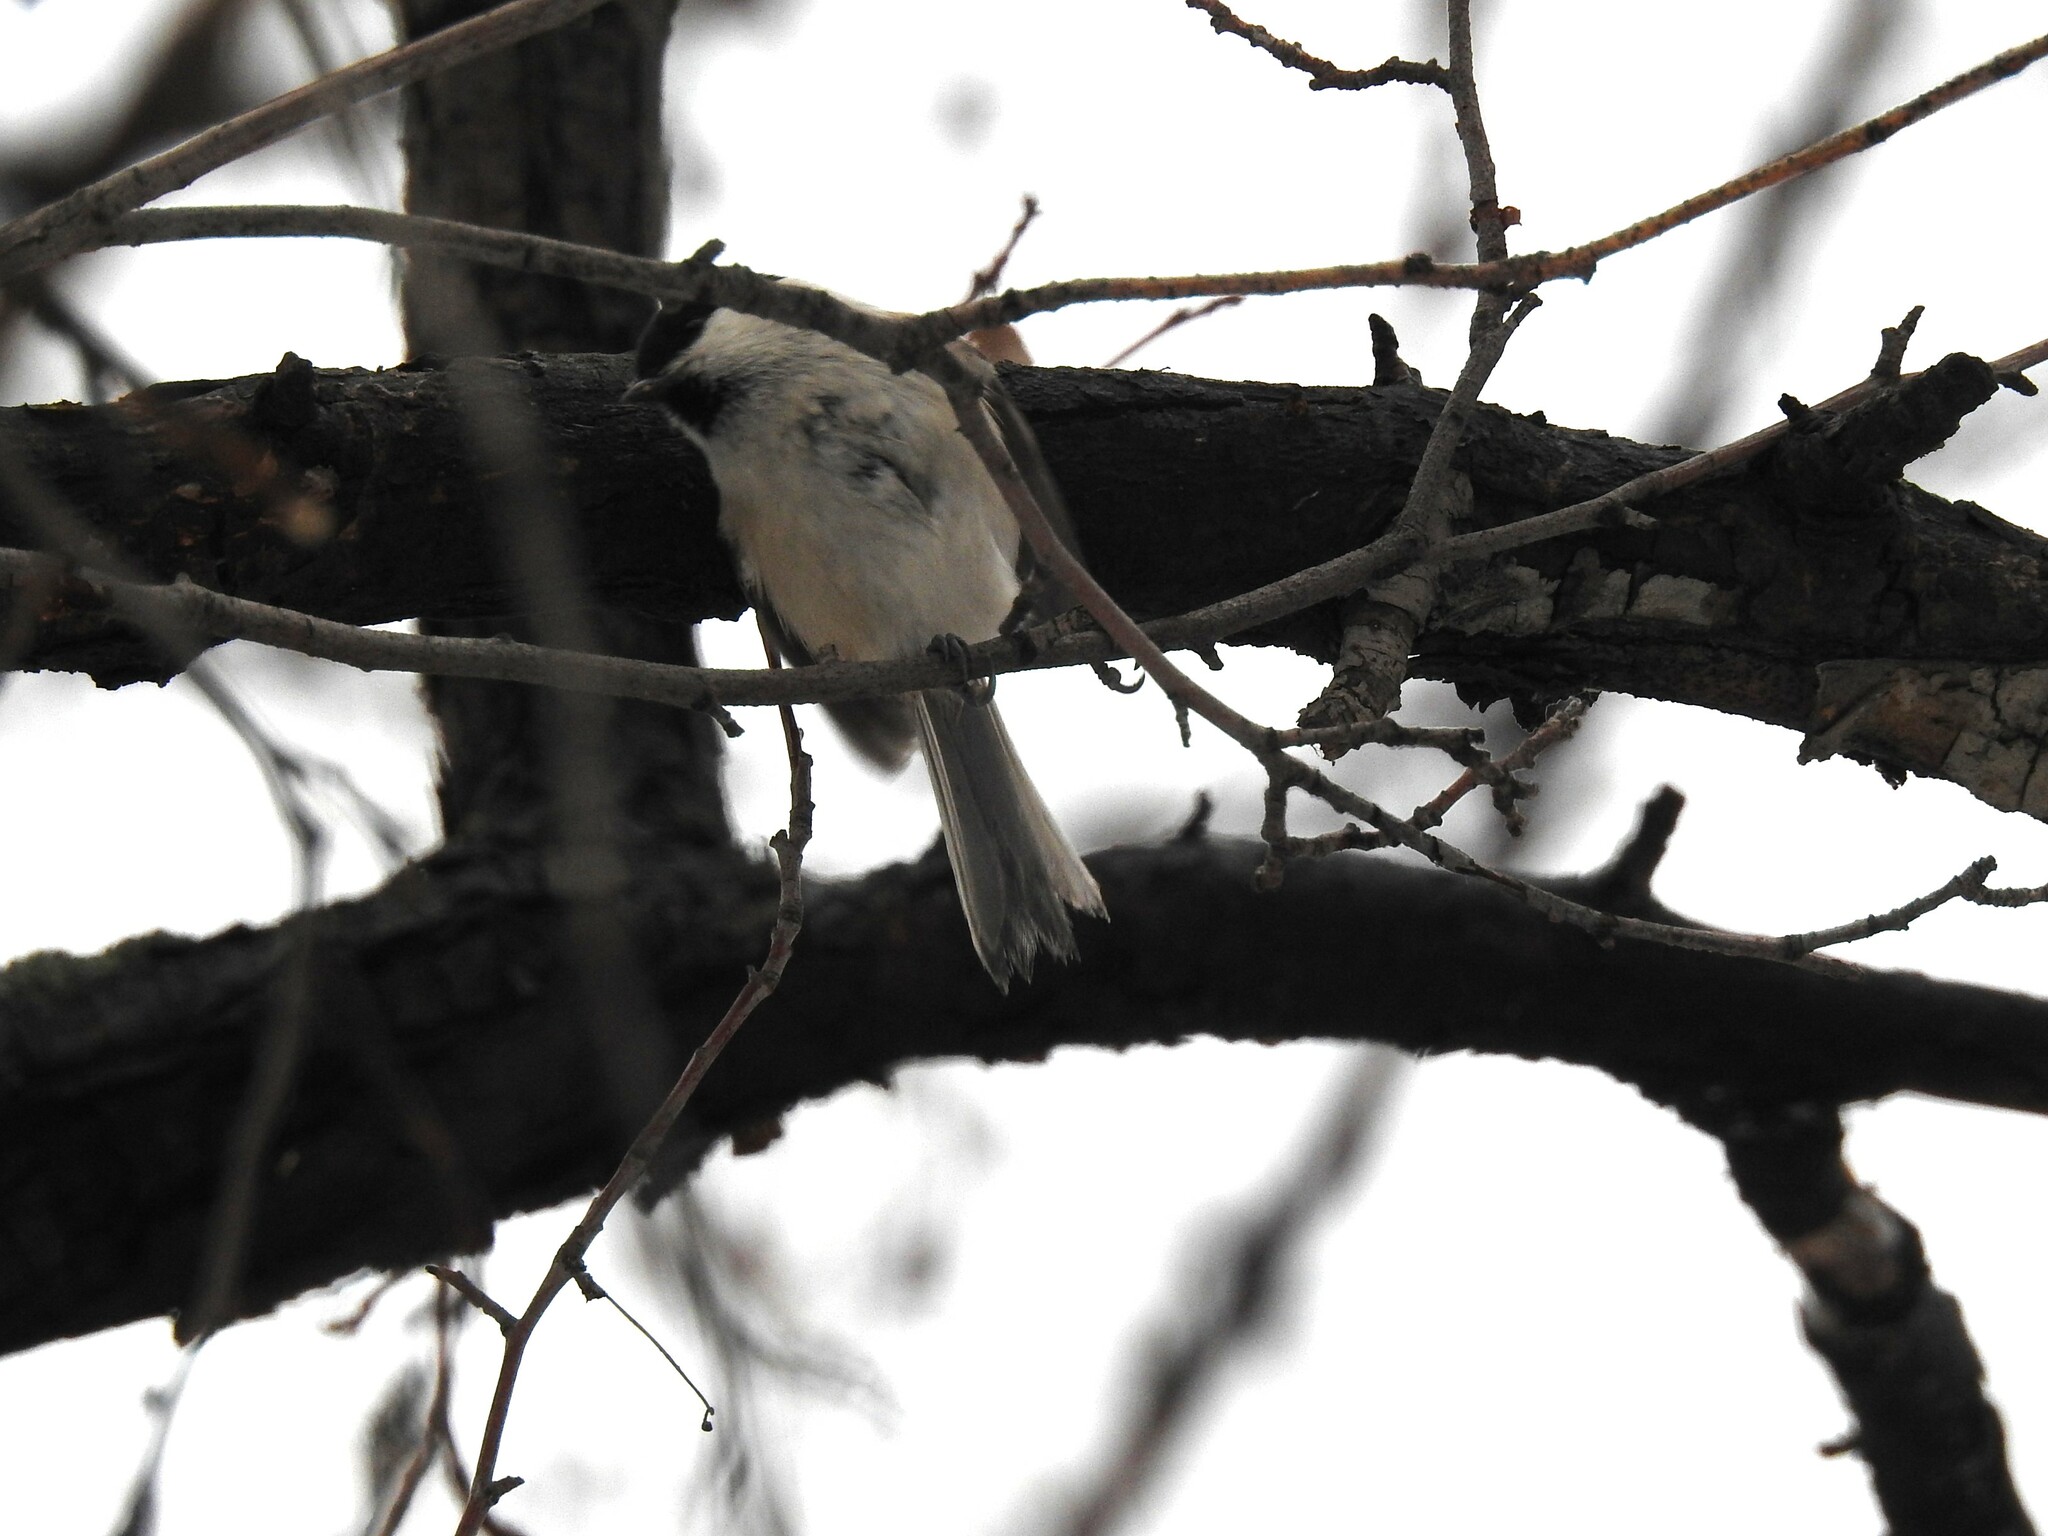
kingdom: Animalia
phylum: Chordata
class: Aves
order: Passeriformes
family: Paridae
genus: Poecile
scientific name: Poecile montanus
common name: Willow tit
